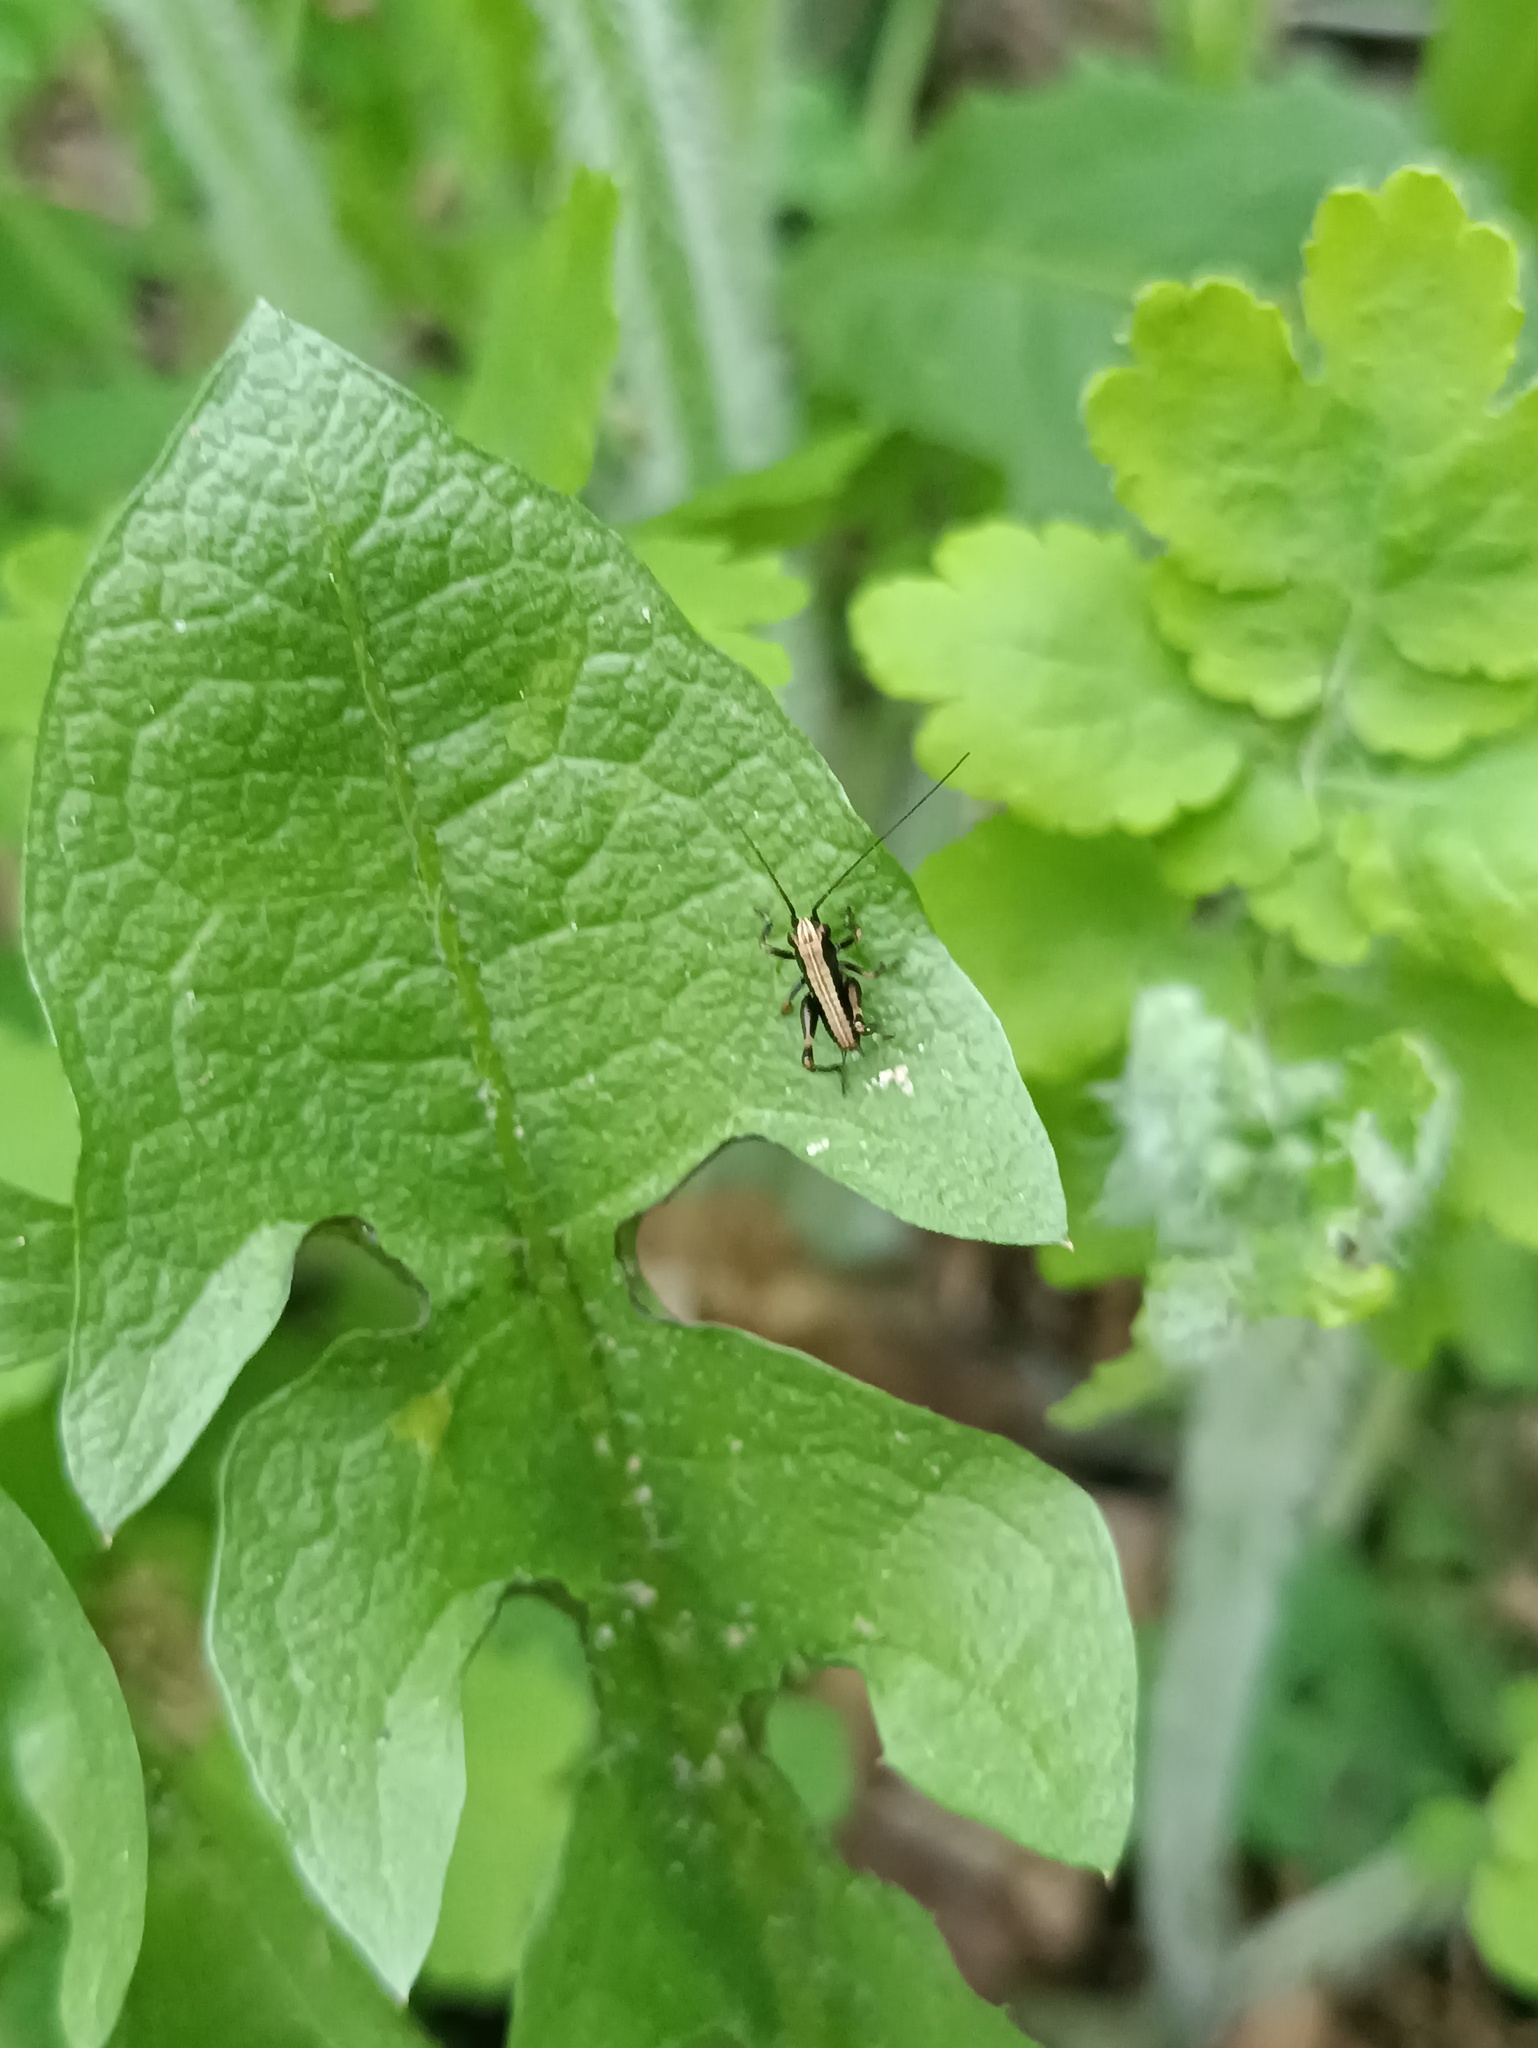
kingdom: Animalia
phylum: Arthropoda
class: Insecta
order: Orthoptera
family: Tettigoniidae
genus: Pholidoptera
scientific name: Pholidoptera griseoaptera
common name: Dark bush-cricket
